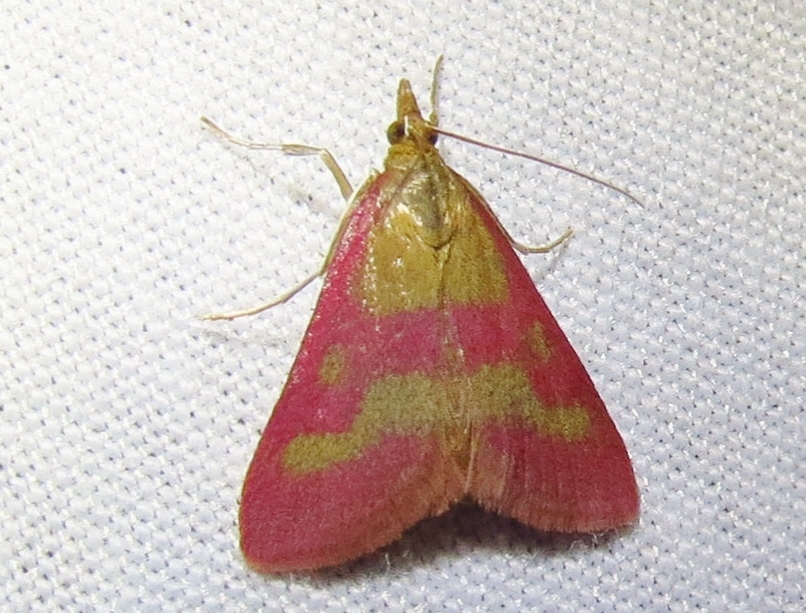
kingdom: Animalia
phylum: Arthropoda
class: Insecta
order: Lepidoptera
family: Crambidae
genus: Pyrausta
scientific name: Pyrausta laticlavia
